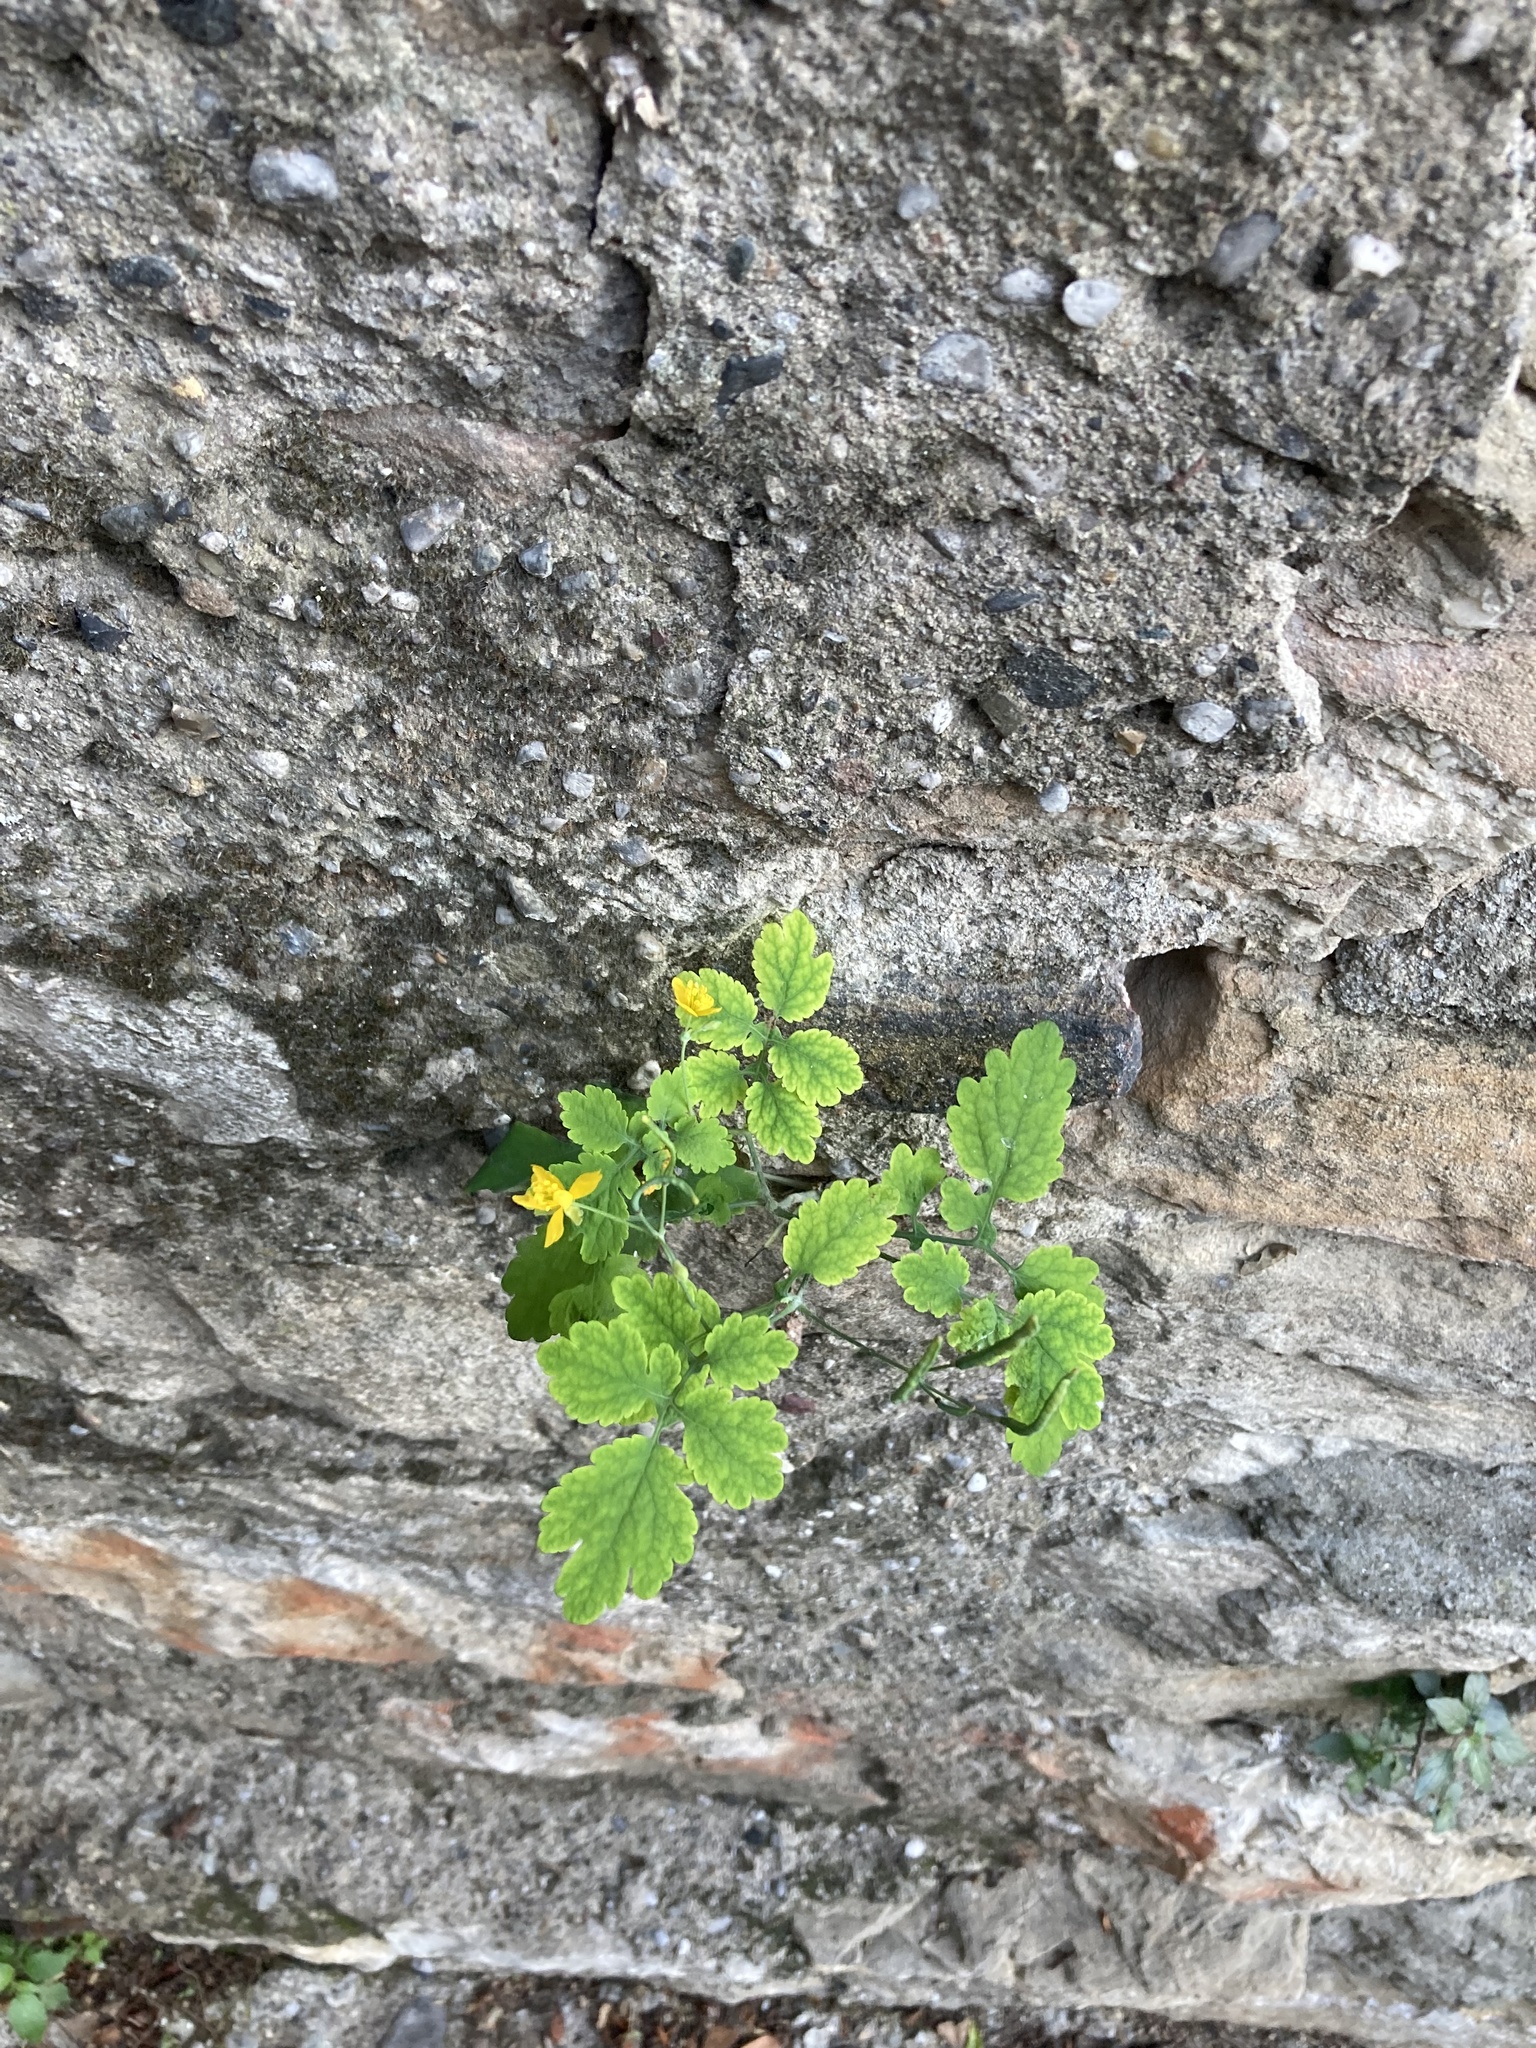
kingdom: Plantae
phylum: Tracheophyta
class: Magnoliopsida
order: Ranunculales
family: Papaveraceae
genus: Chelidonium
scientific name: Chelidonium majus
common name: Greater celandine
